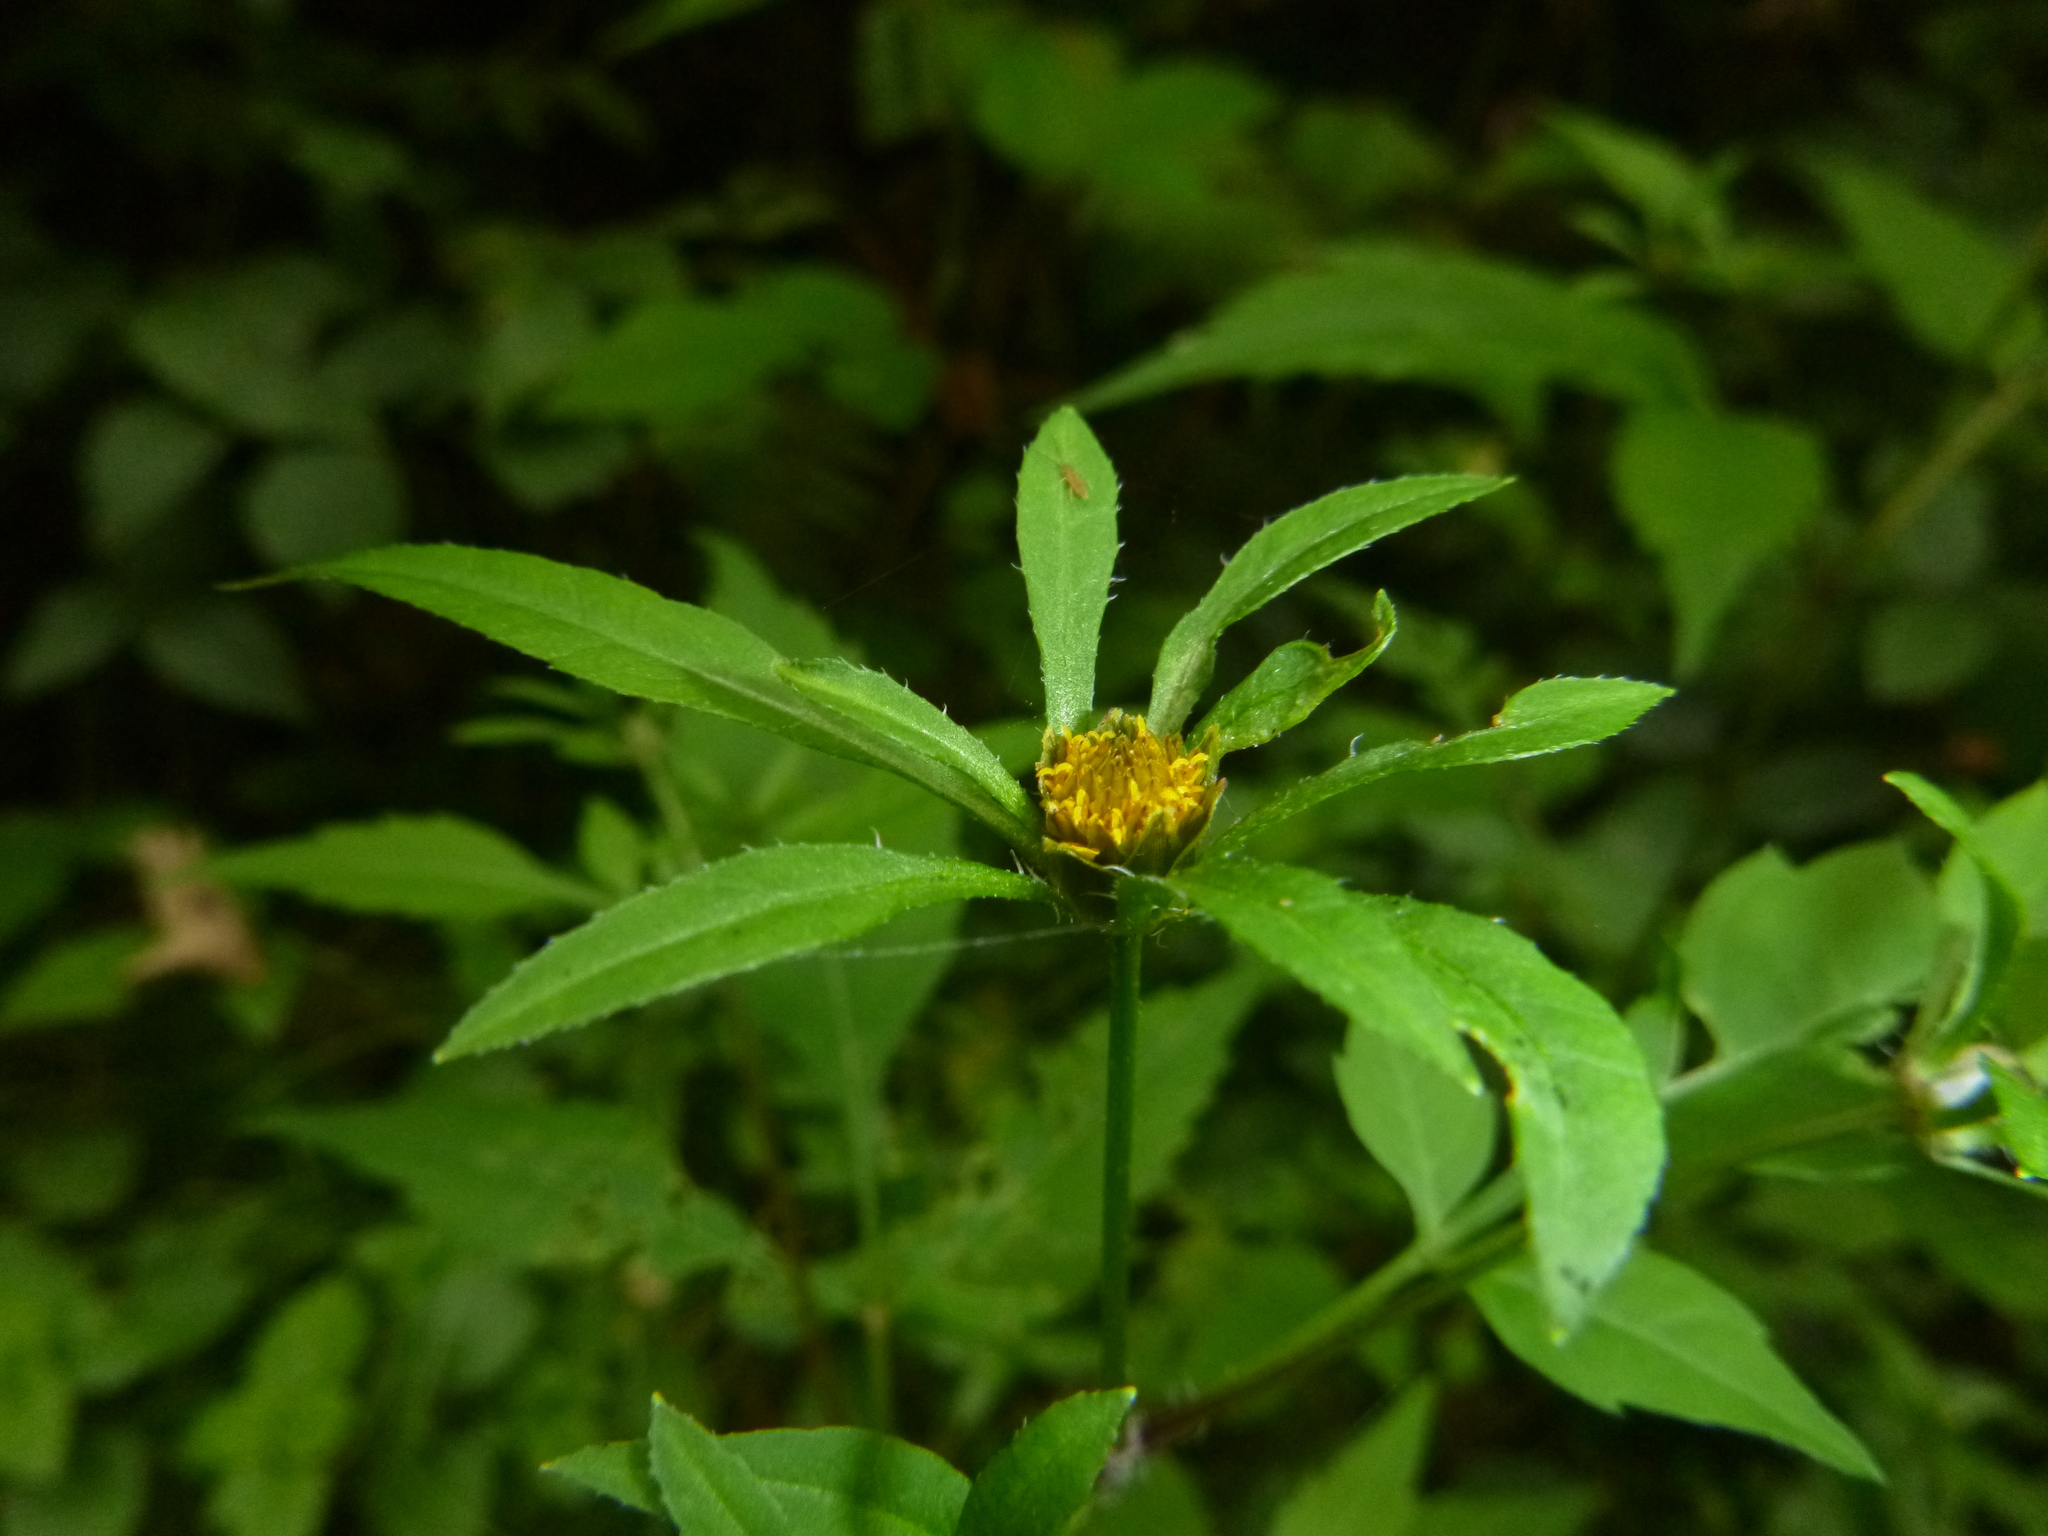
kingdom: Plantae
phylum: Tracheophyta
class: Magnoliopsida
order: Asterales
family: Asteraceae
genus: Bidens
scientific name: Bidens frondosa
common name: Beggarticks
